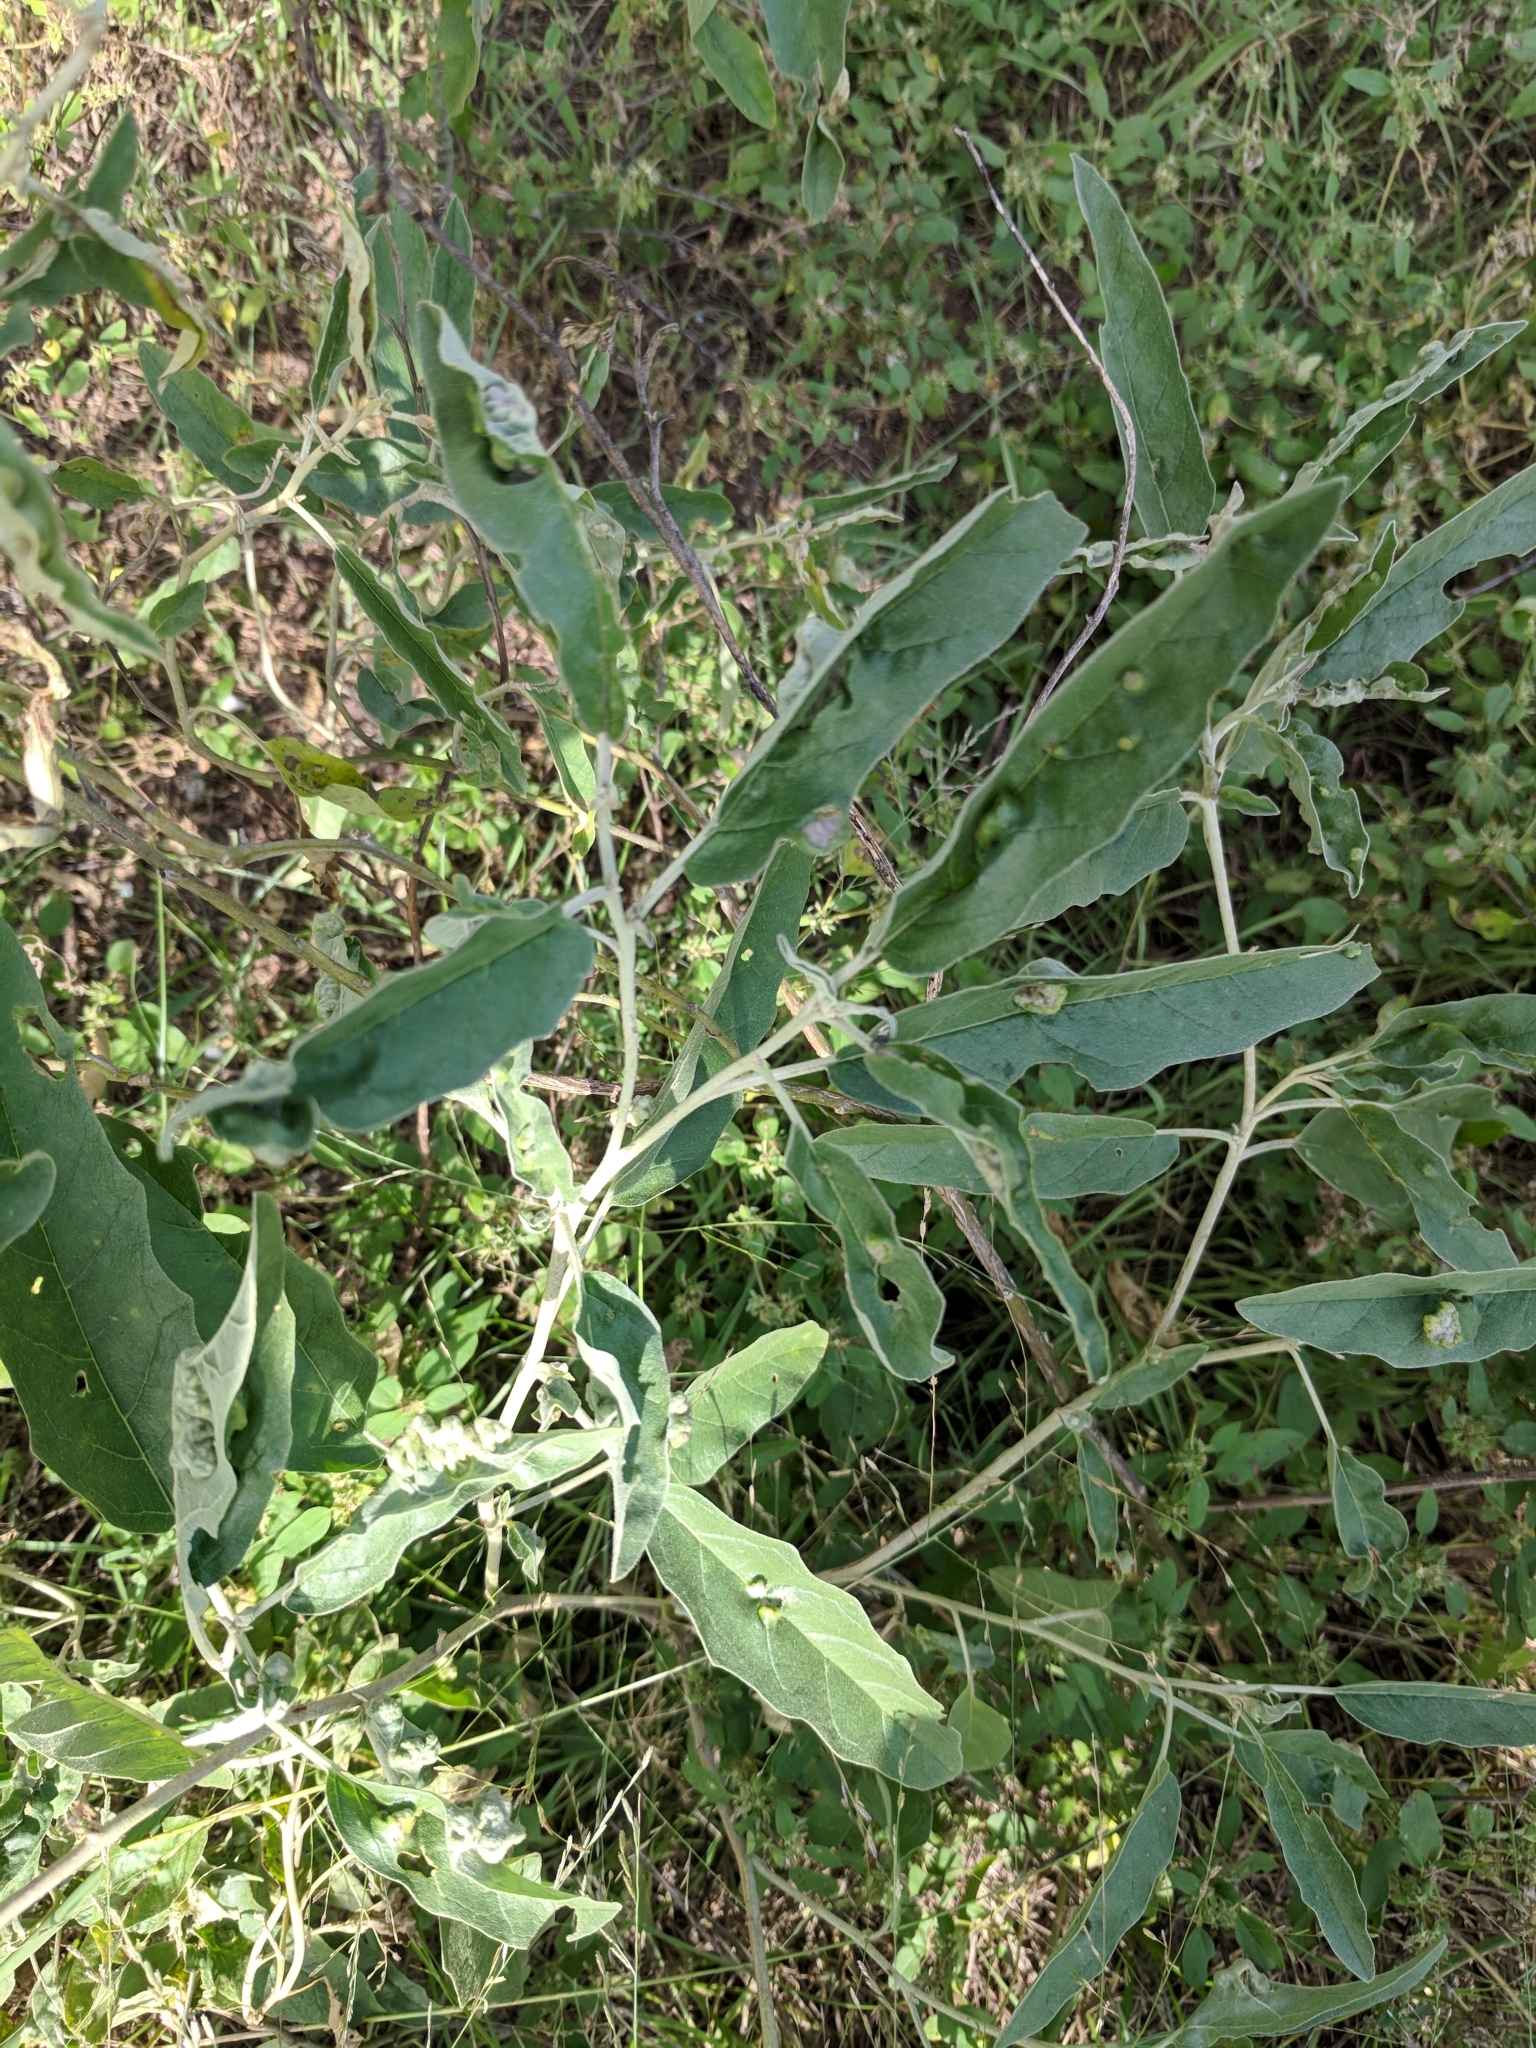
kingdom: Plantae
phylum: Tracheophyta
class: Magnoliopsida
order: Solanales
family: Solanaceae
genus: Solanum
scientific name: Solanum elaeagnifolium
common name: Silverleaf nightshade
